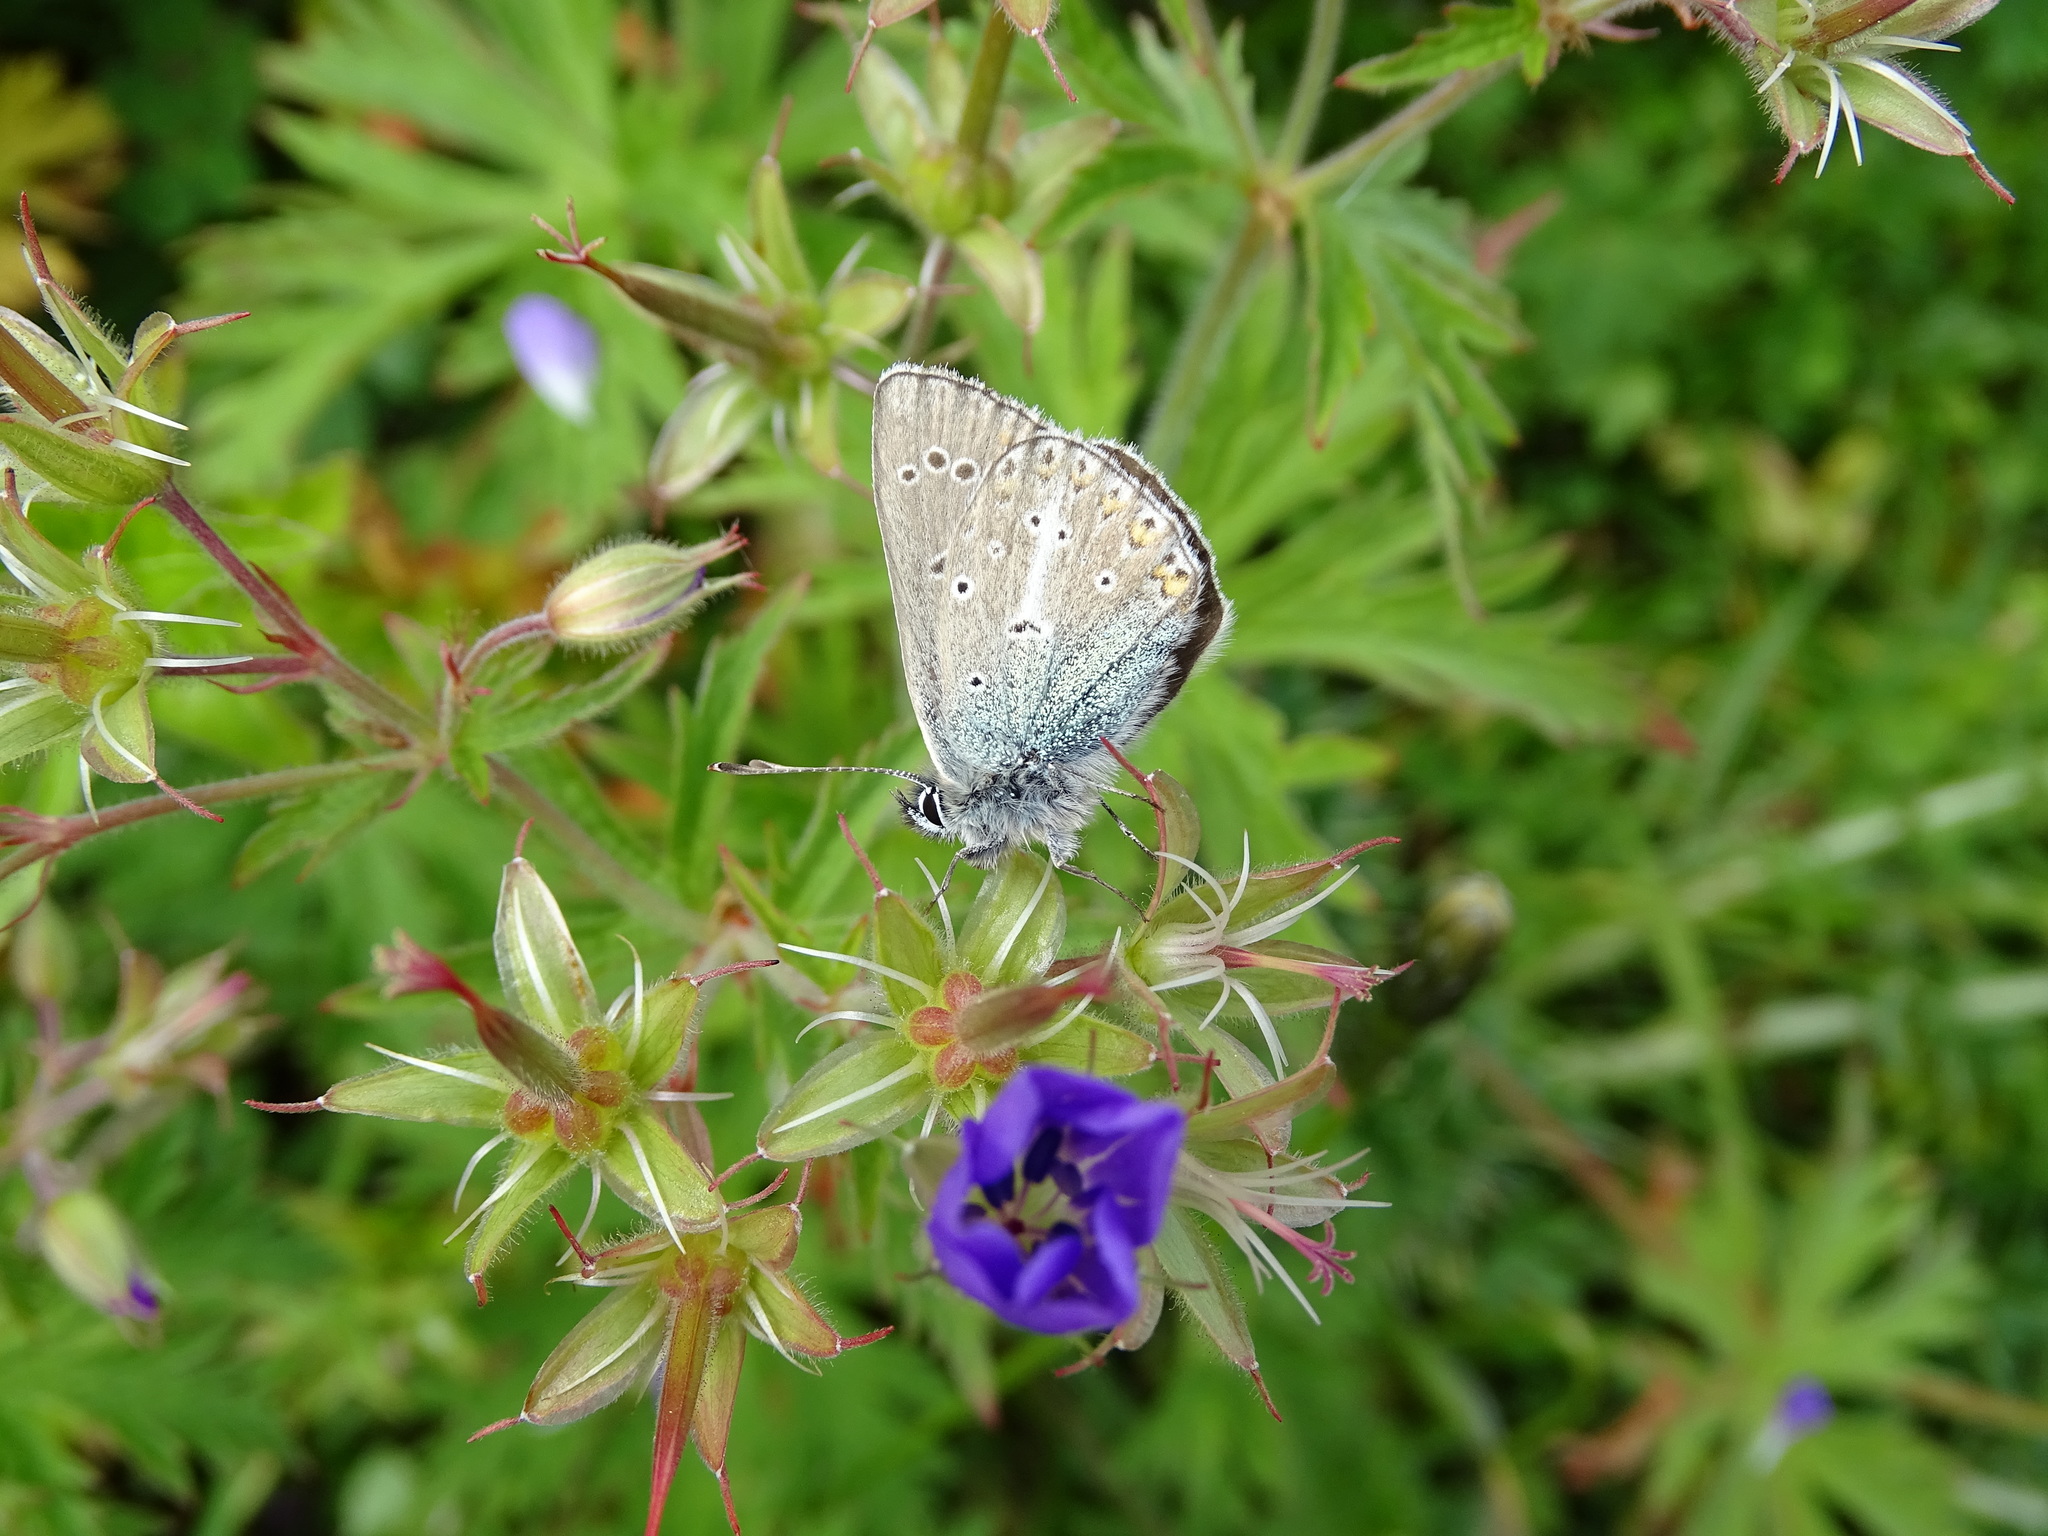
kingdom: Animalia
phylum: Arthropoda
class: Insecta
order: Lepidoptera
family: Lycaenidae
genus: Eumedonia
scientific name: Eumedonia eumedon
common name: Geranium argus
